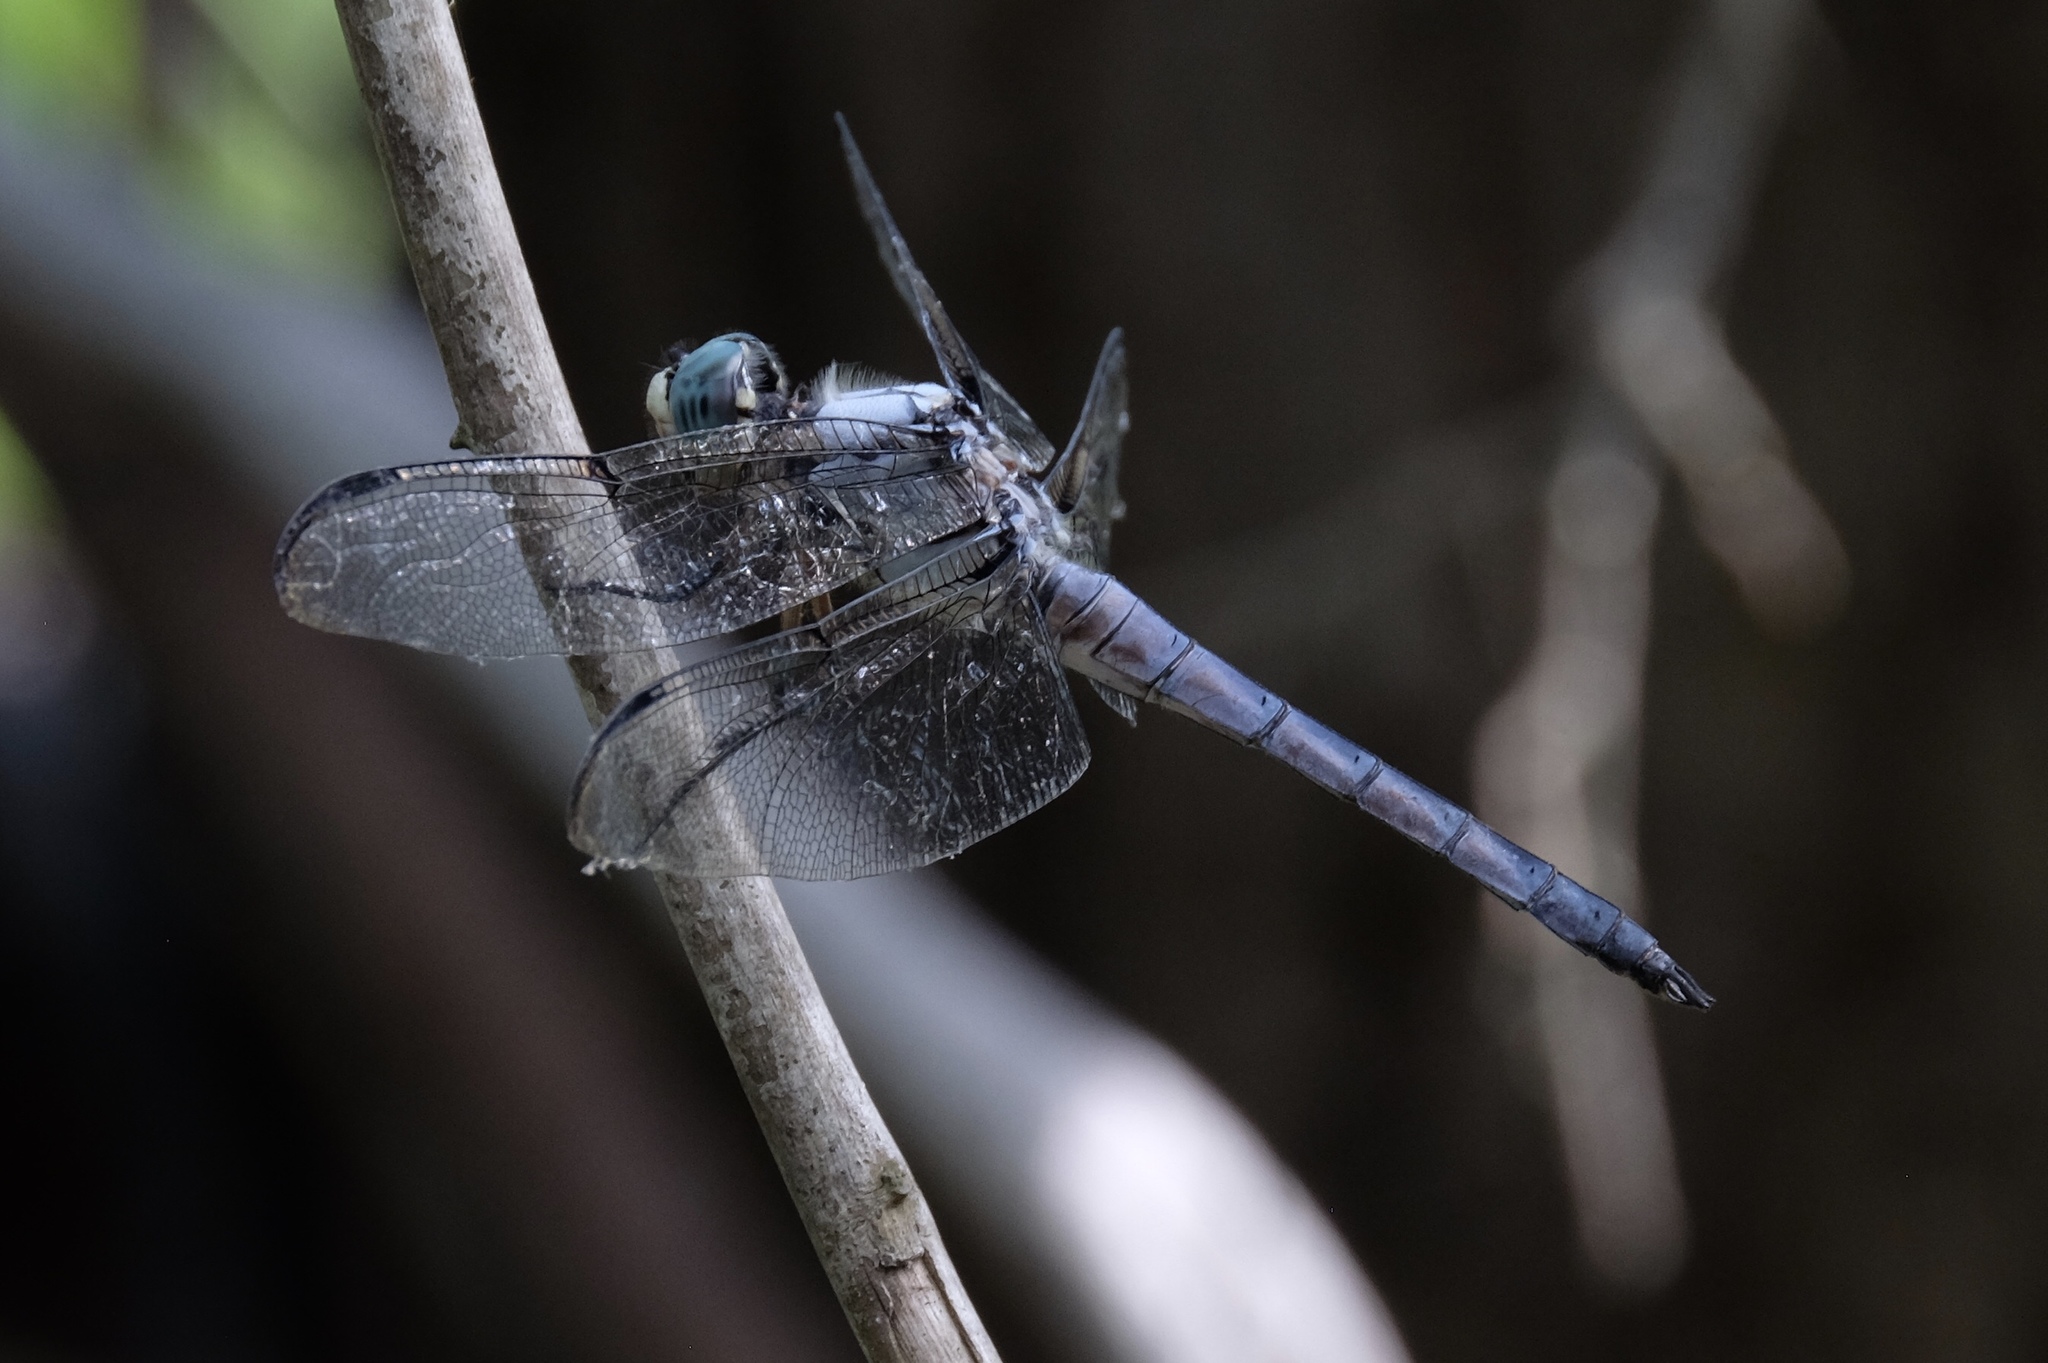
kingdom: Animalia
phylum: Arthropoda
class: Insecta
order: Odonata
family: Libellulidae
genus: Libellula
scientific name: Libellula vibrans
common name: Great blue skimmer
